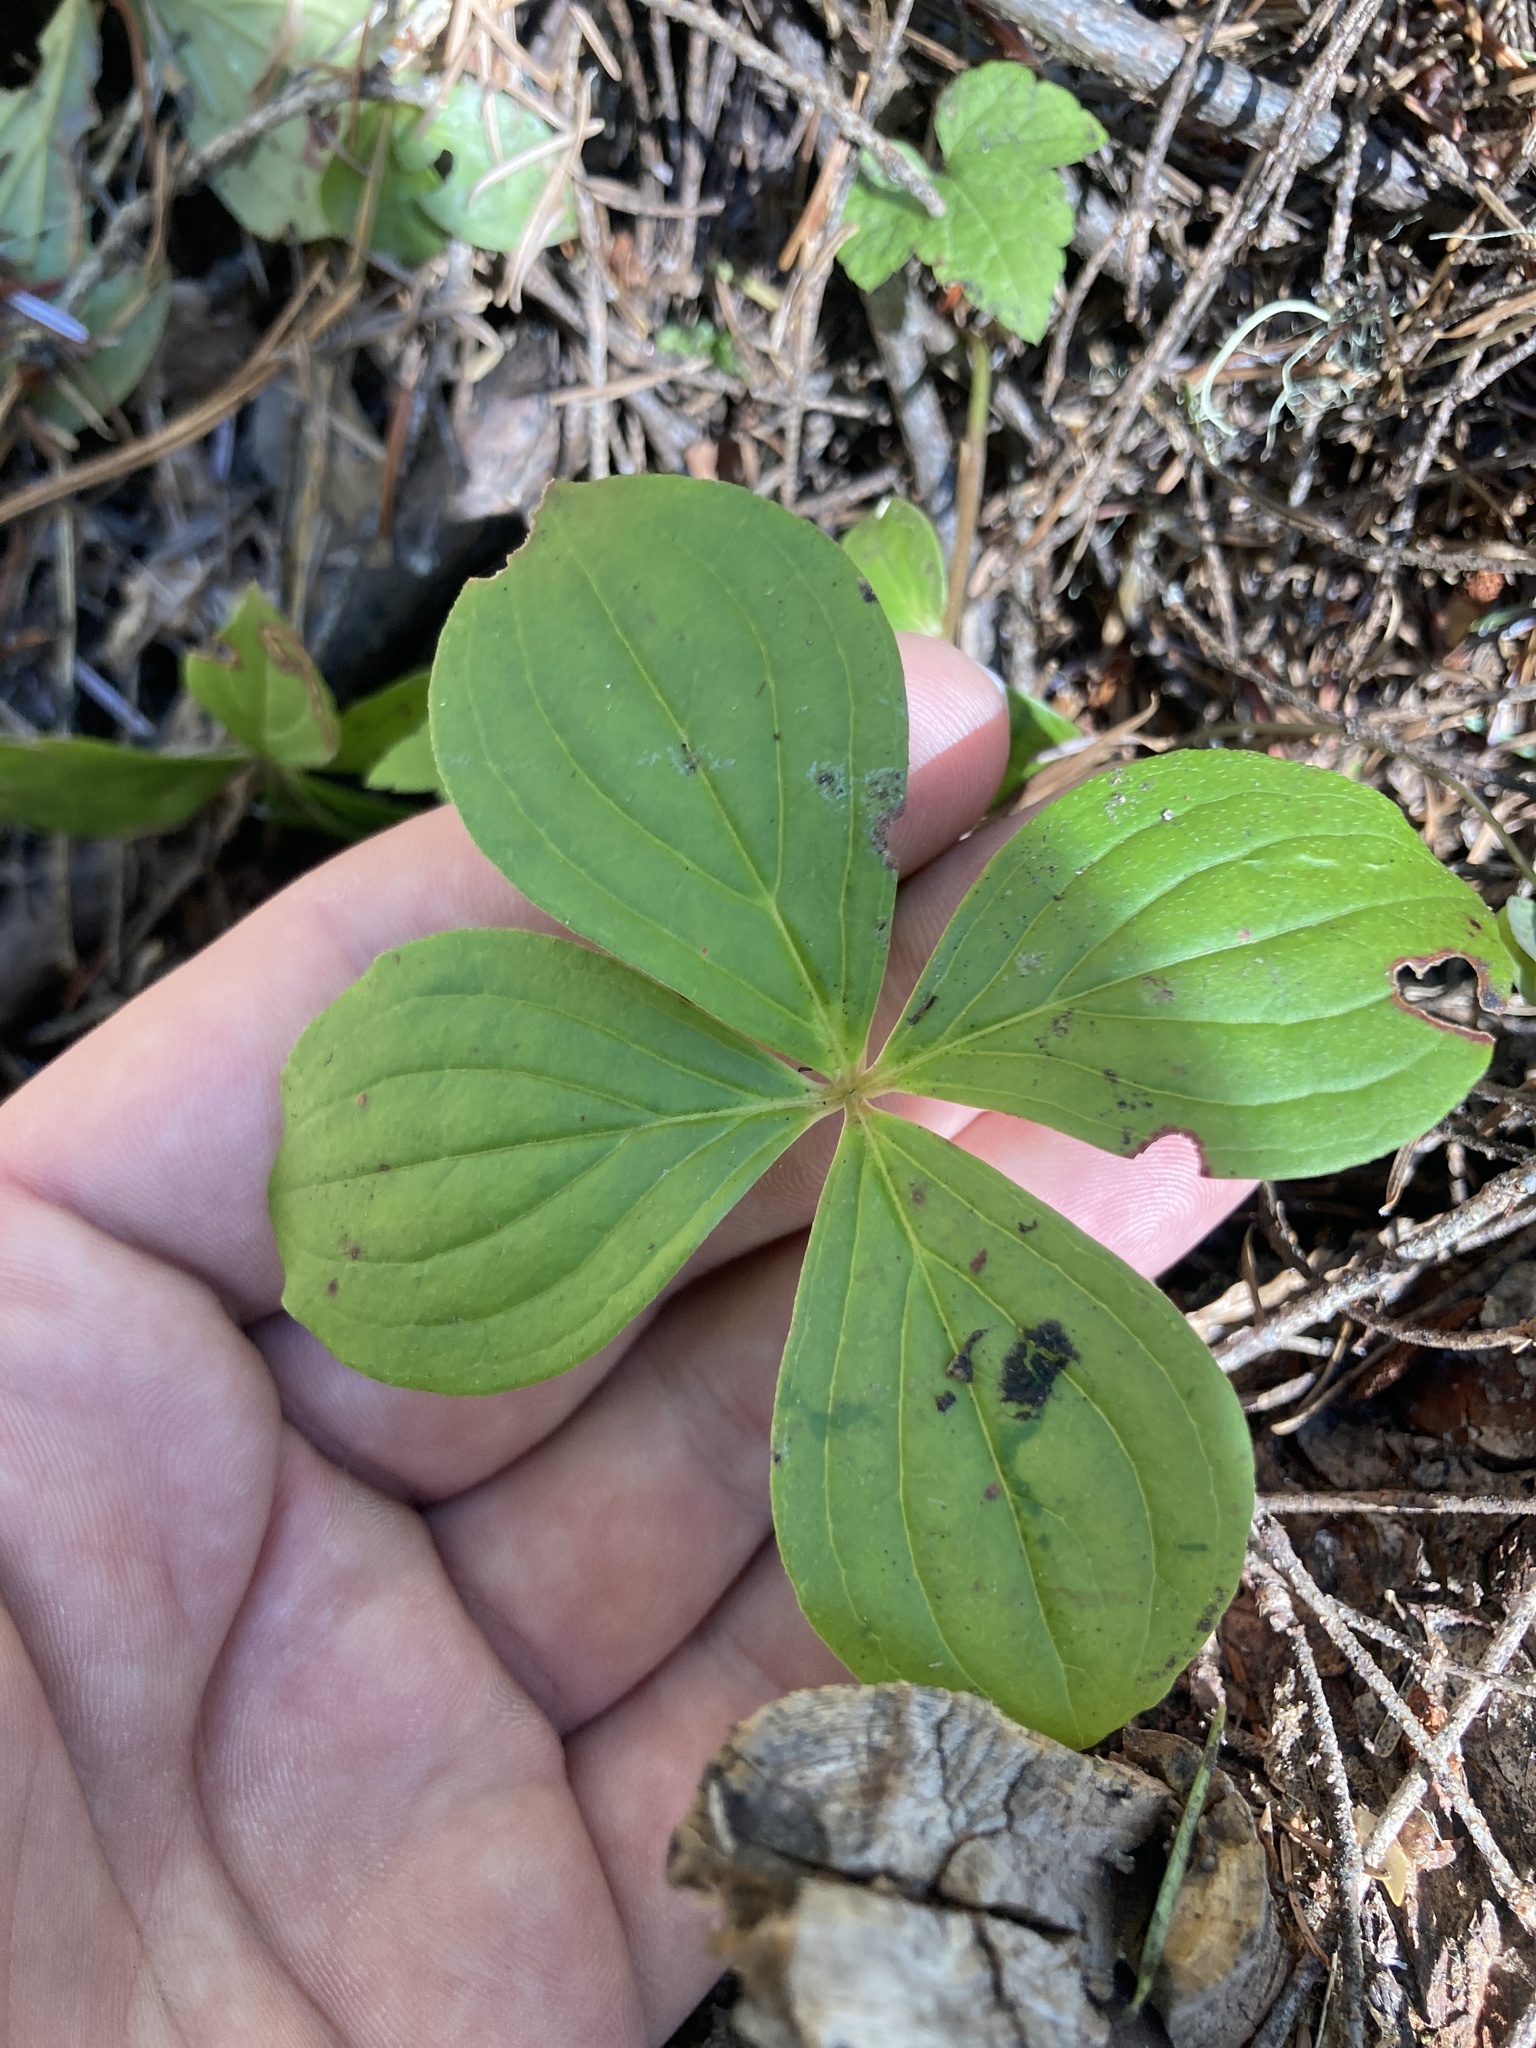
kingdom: Plantae
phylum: Tracheophyta
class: Magnoliopsida
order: Cornales
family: Cornaceae
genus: Cornus
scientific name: Cornus unalaschkensis
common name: Alaska bunchberry
